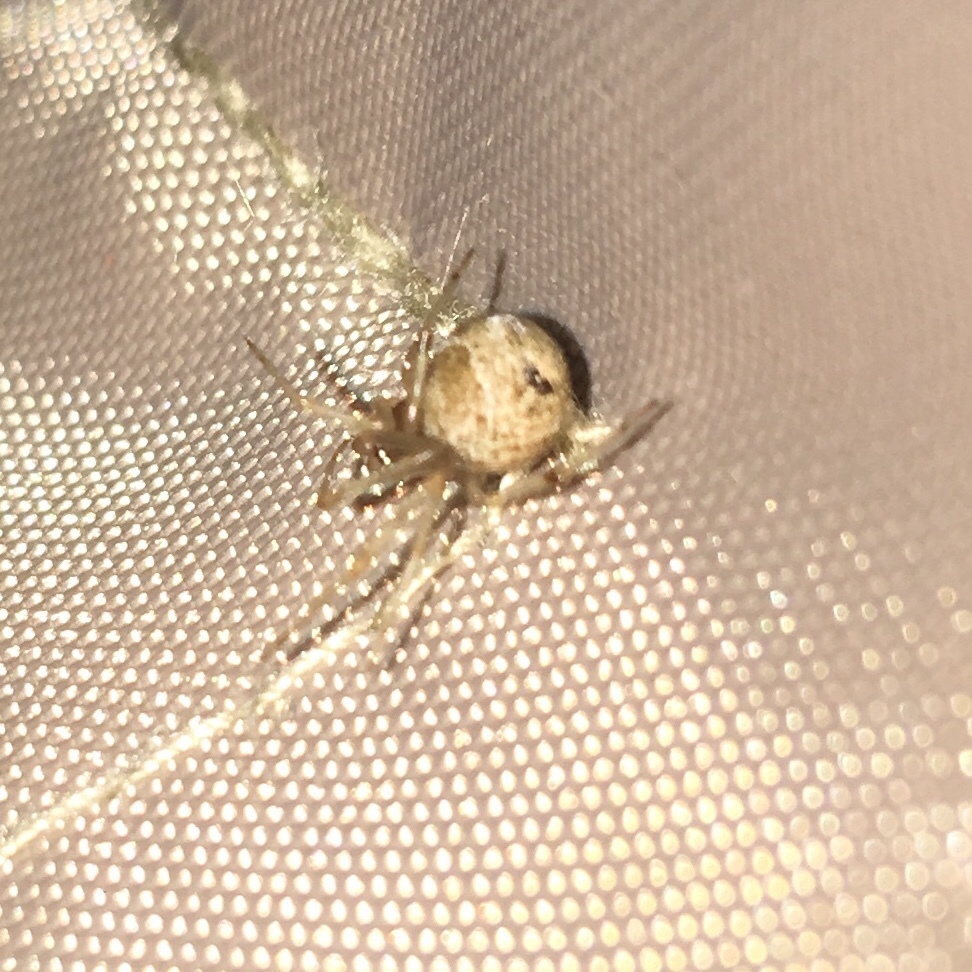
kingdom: Animalia
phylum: Arthropoda
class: Arachnida
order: Araneae
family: Theridiidae
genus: Parasteatoda
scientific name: Parasteatoda tepidariorum
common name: Common house spider
